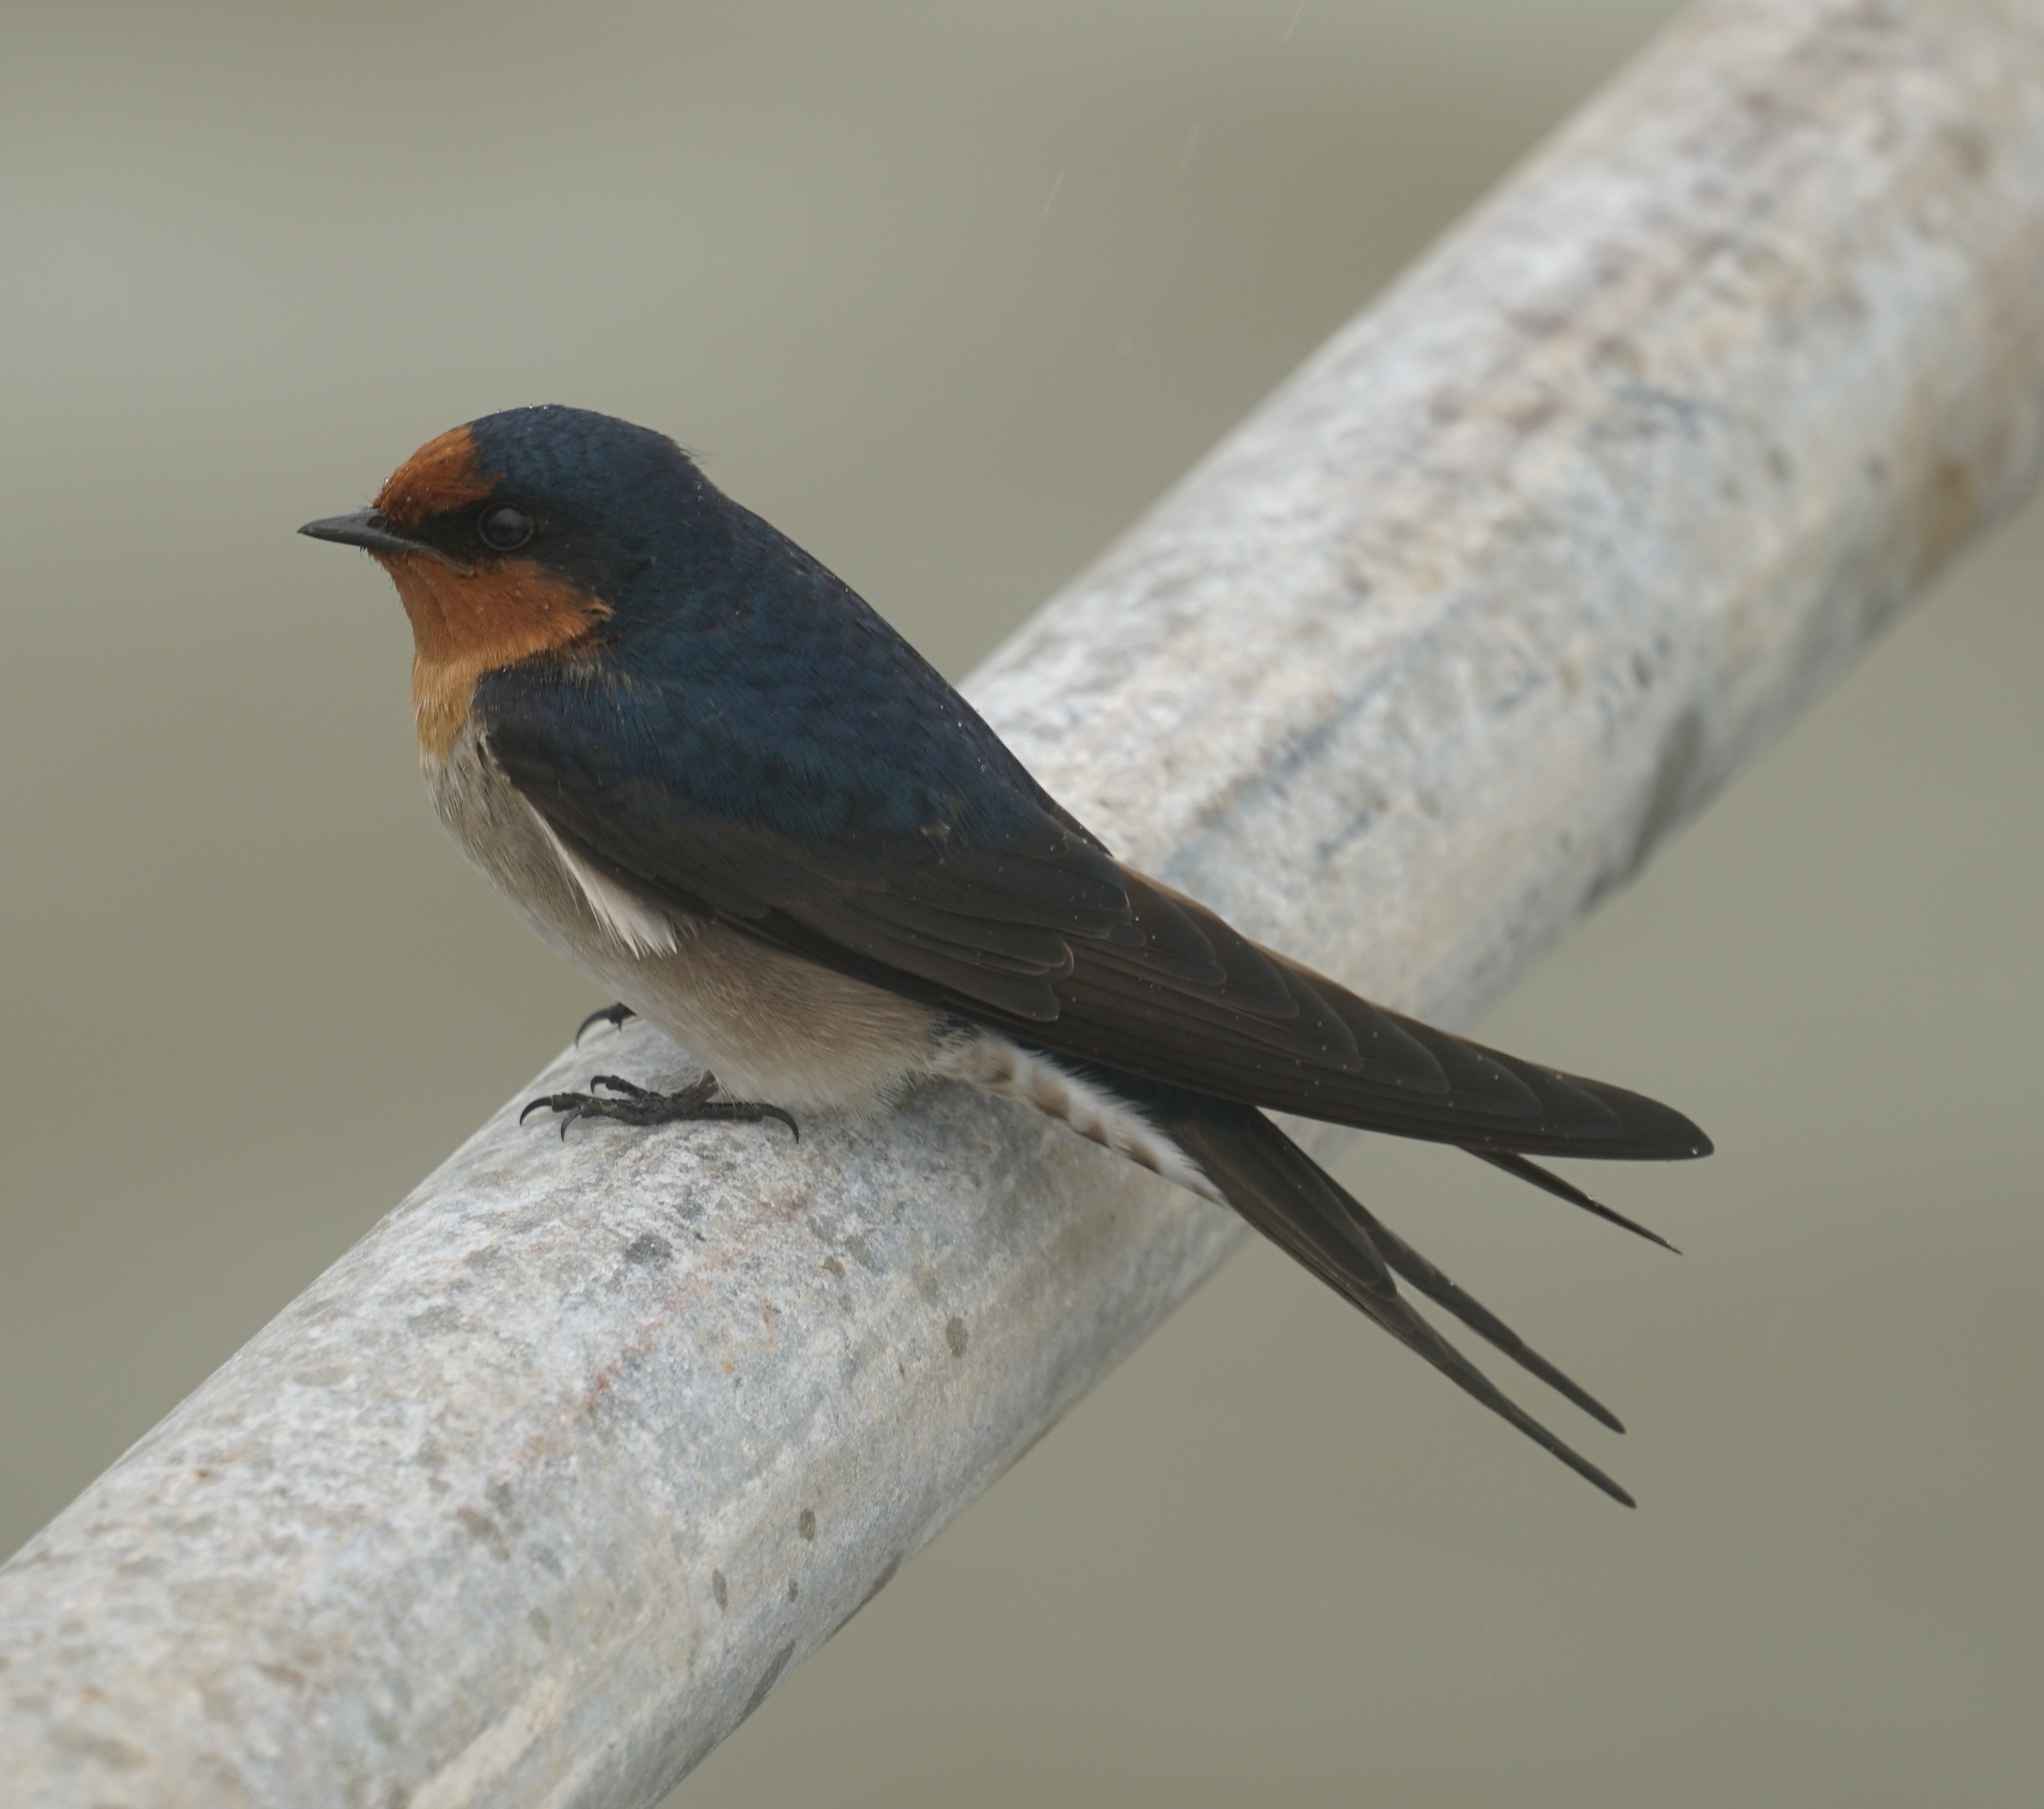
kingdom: Animalia
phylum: Chordata
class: Aves
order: Passeriformes
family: Hirundinidae
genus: Hirundo
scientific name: Hirundo neoxena
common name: Welcome swallow
